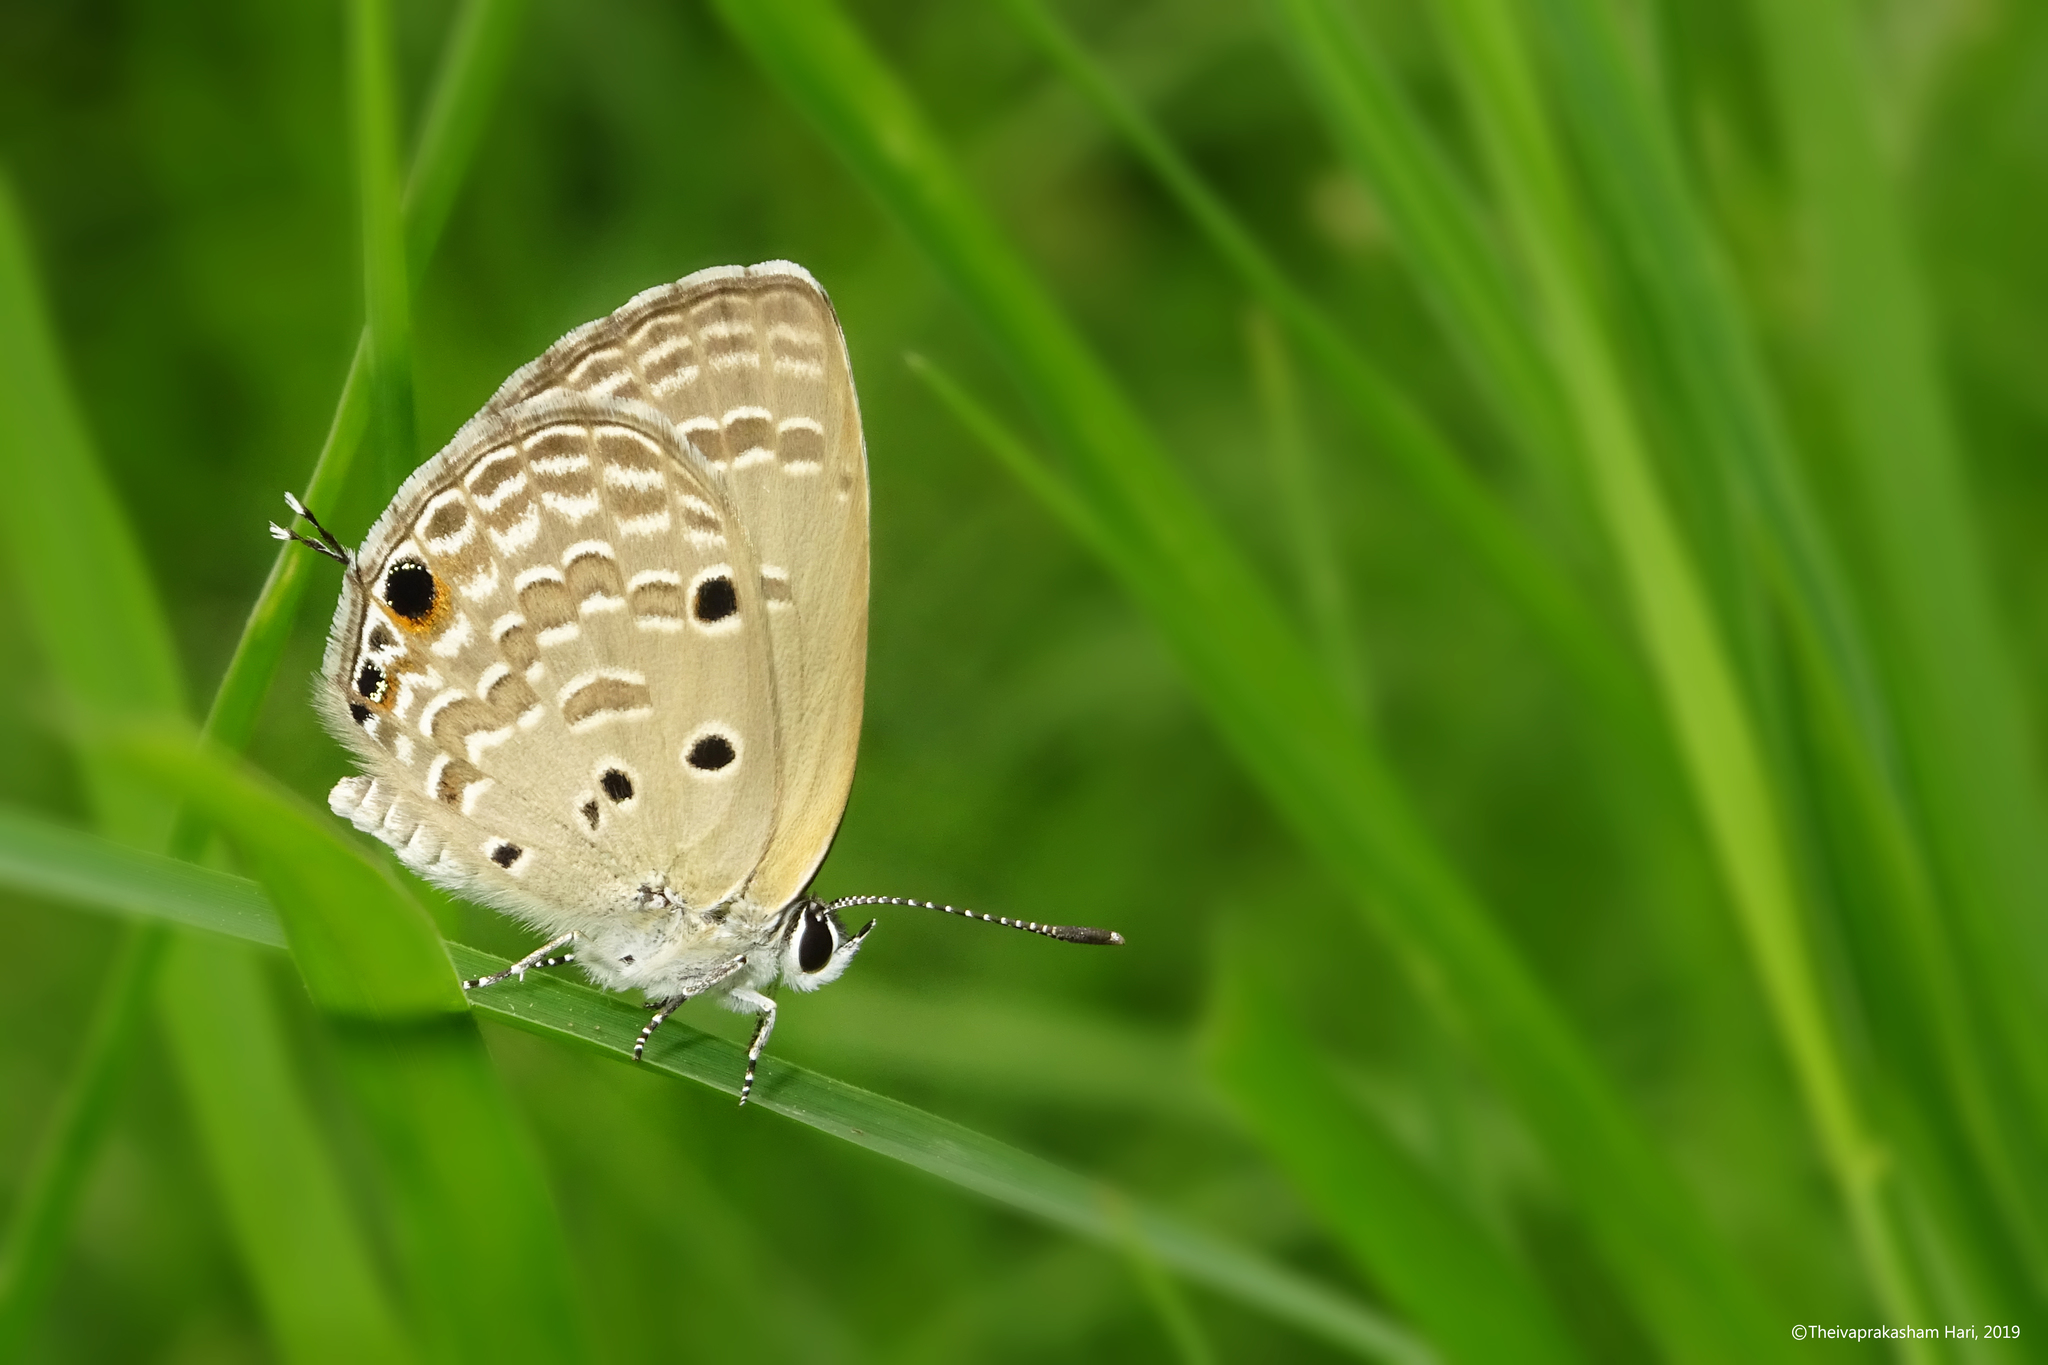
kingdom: Animalia
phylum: Arthropoda
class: Insecta
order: Lepidoptera
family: Lycaenidae
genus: Luthrodes
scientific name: Luthrodes pandava
